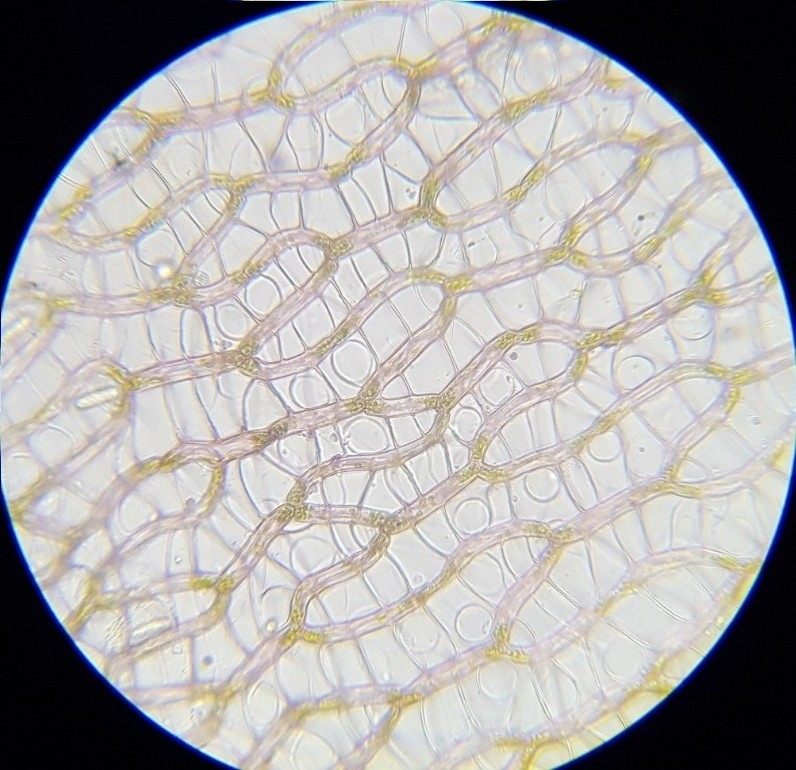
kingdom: Plantae
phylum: Bryophyta
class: Sphagnopsida
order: Sphagnales
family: Sphagnaceae
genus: Sphagnum
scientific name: Sphagnum subnitens
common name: Lustrous bog-moss
